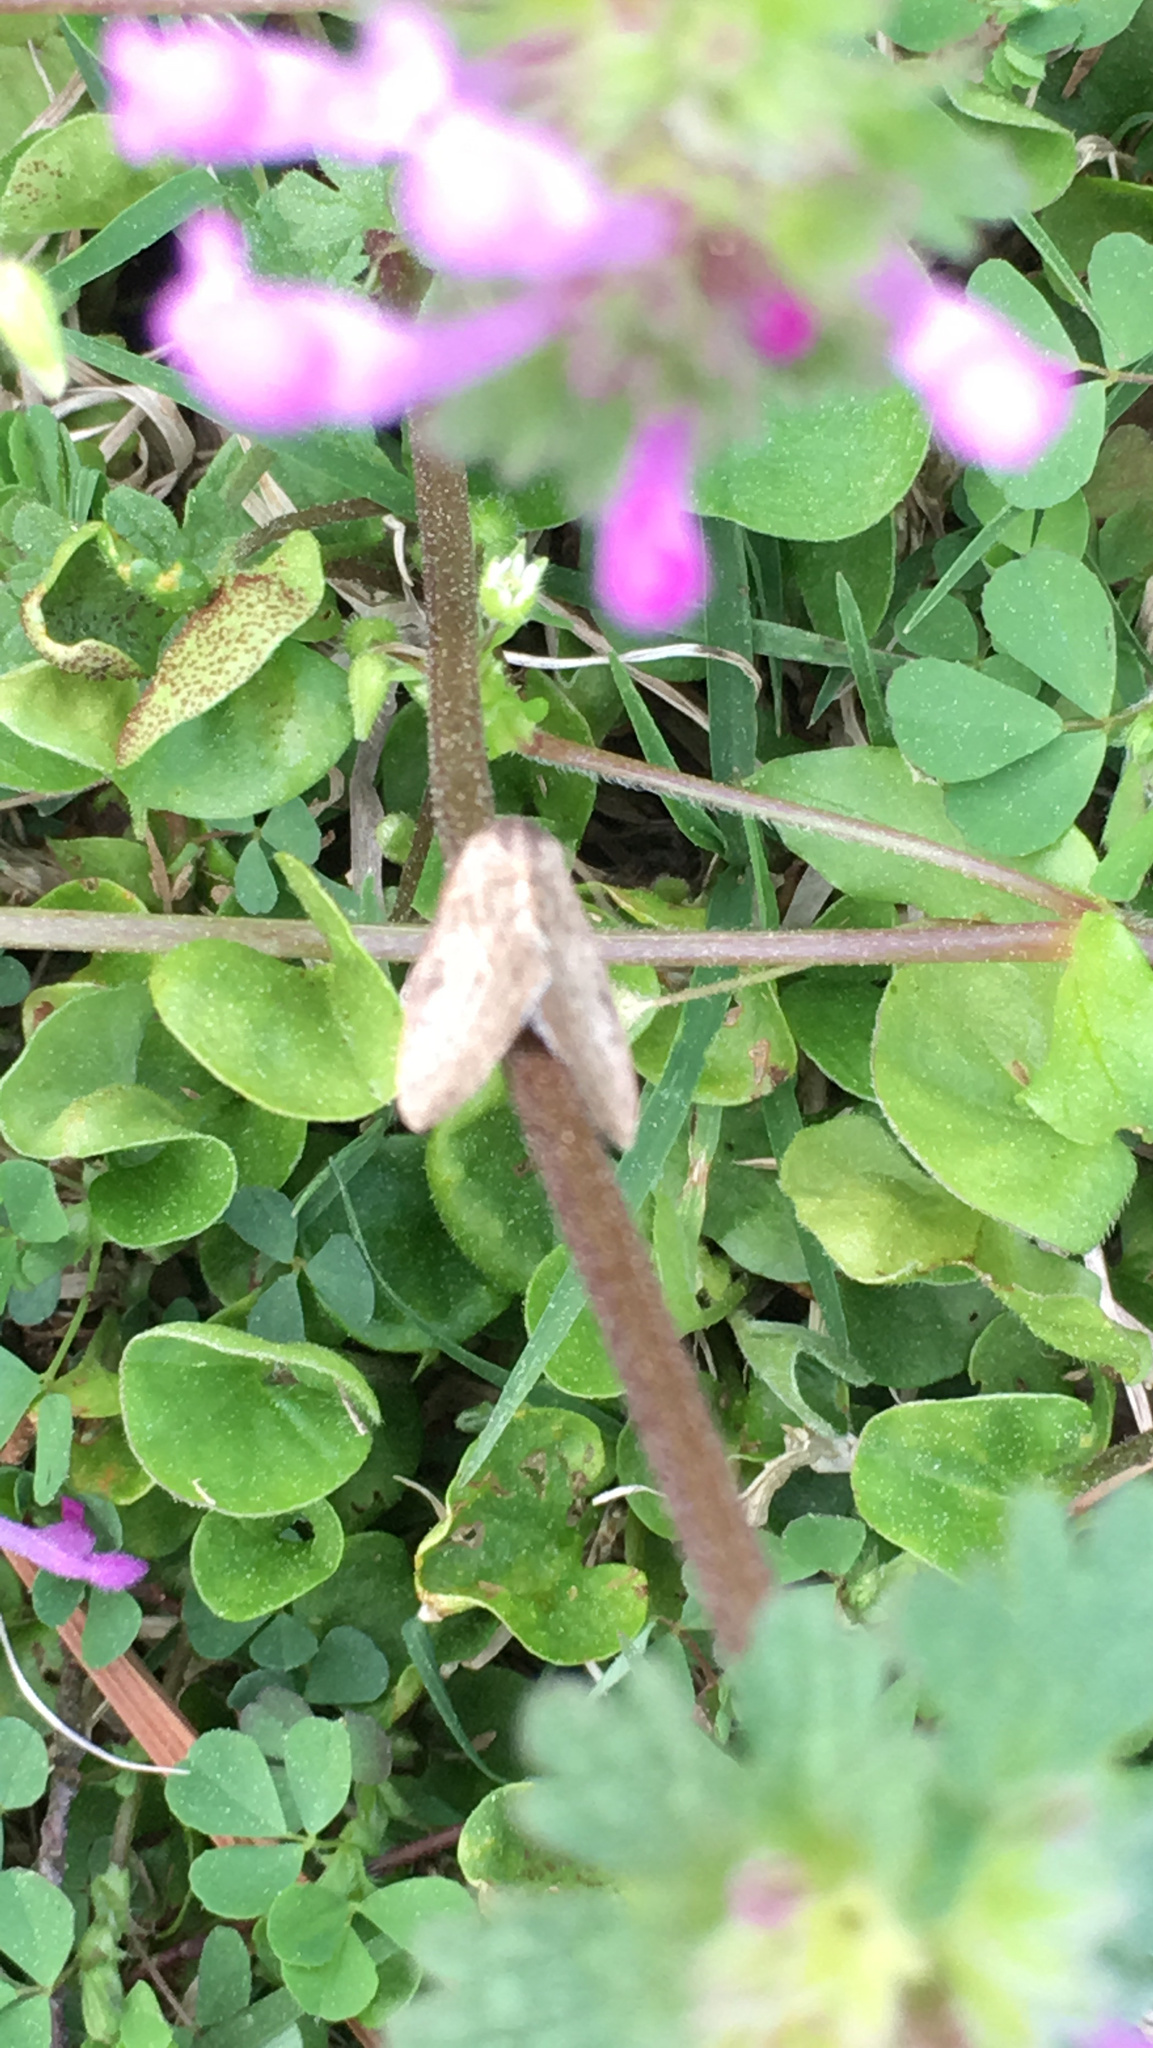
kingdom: Animalia
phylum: Arthropoda
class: Insecta
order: Lepidoptera
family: Noctuidae
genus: Galgula
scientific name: Galgula partita
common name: Wedgeling
